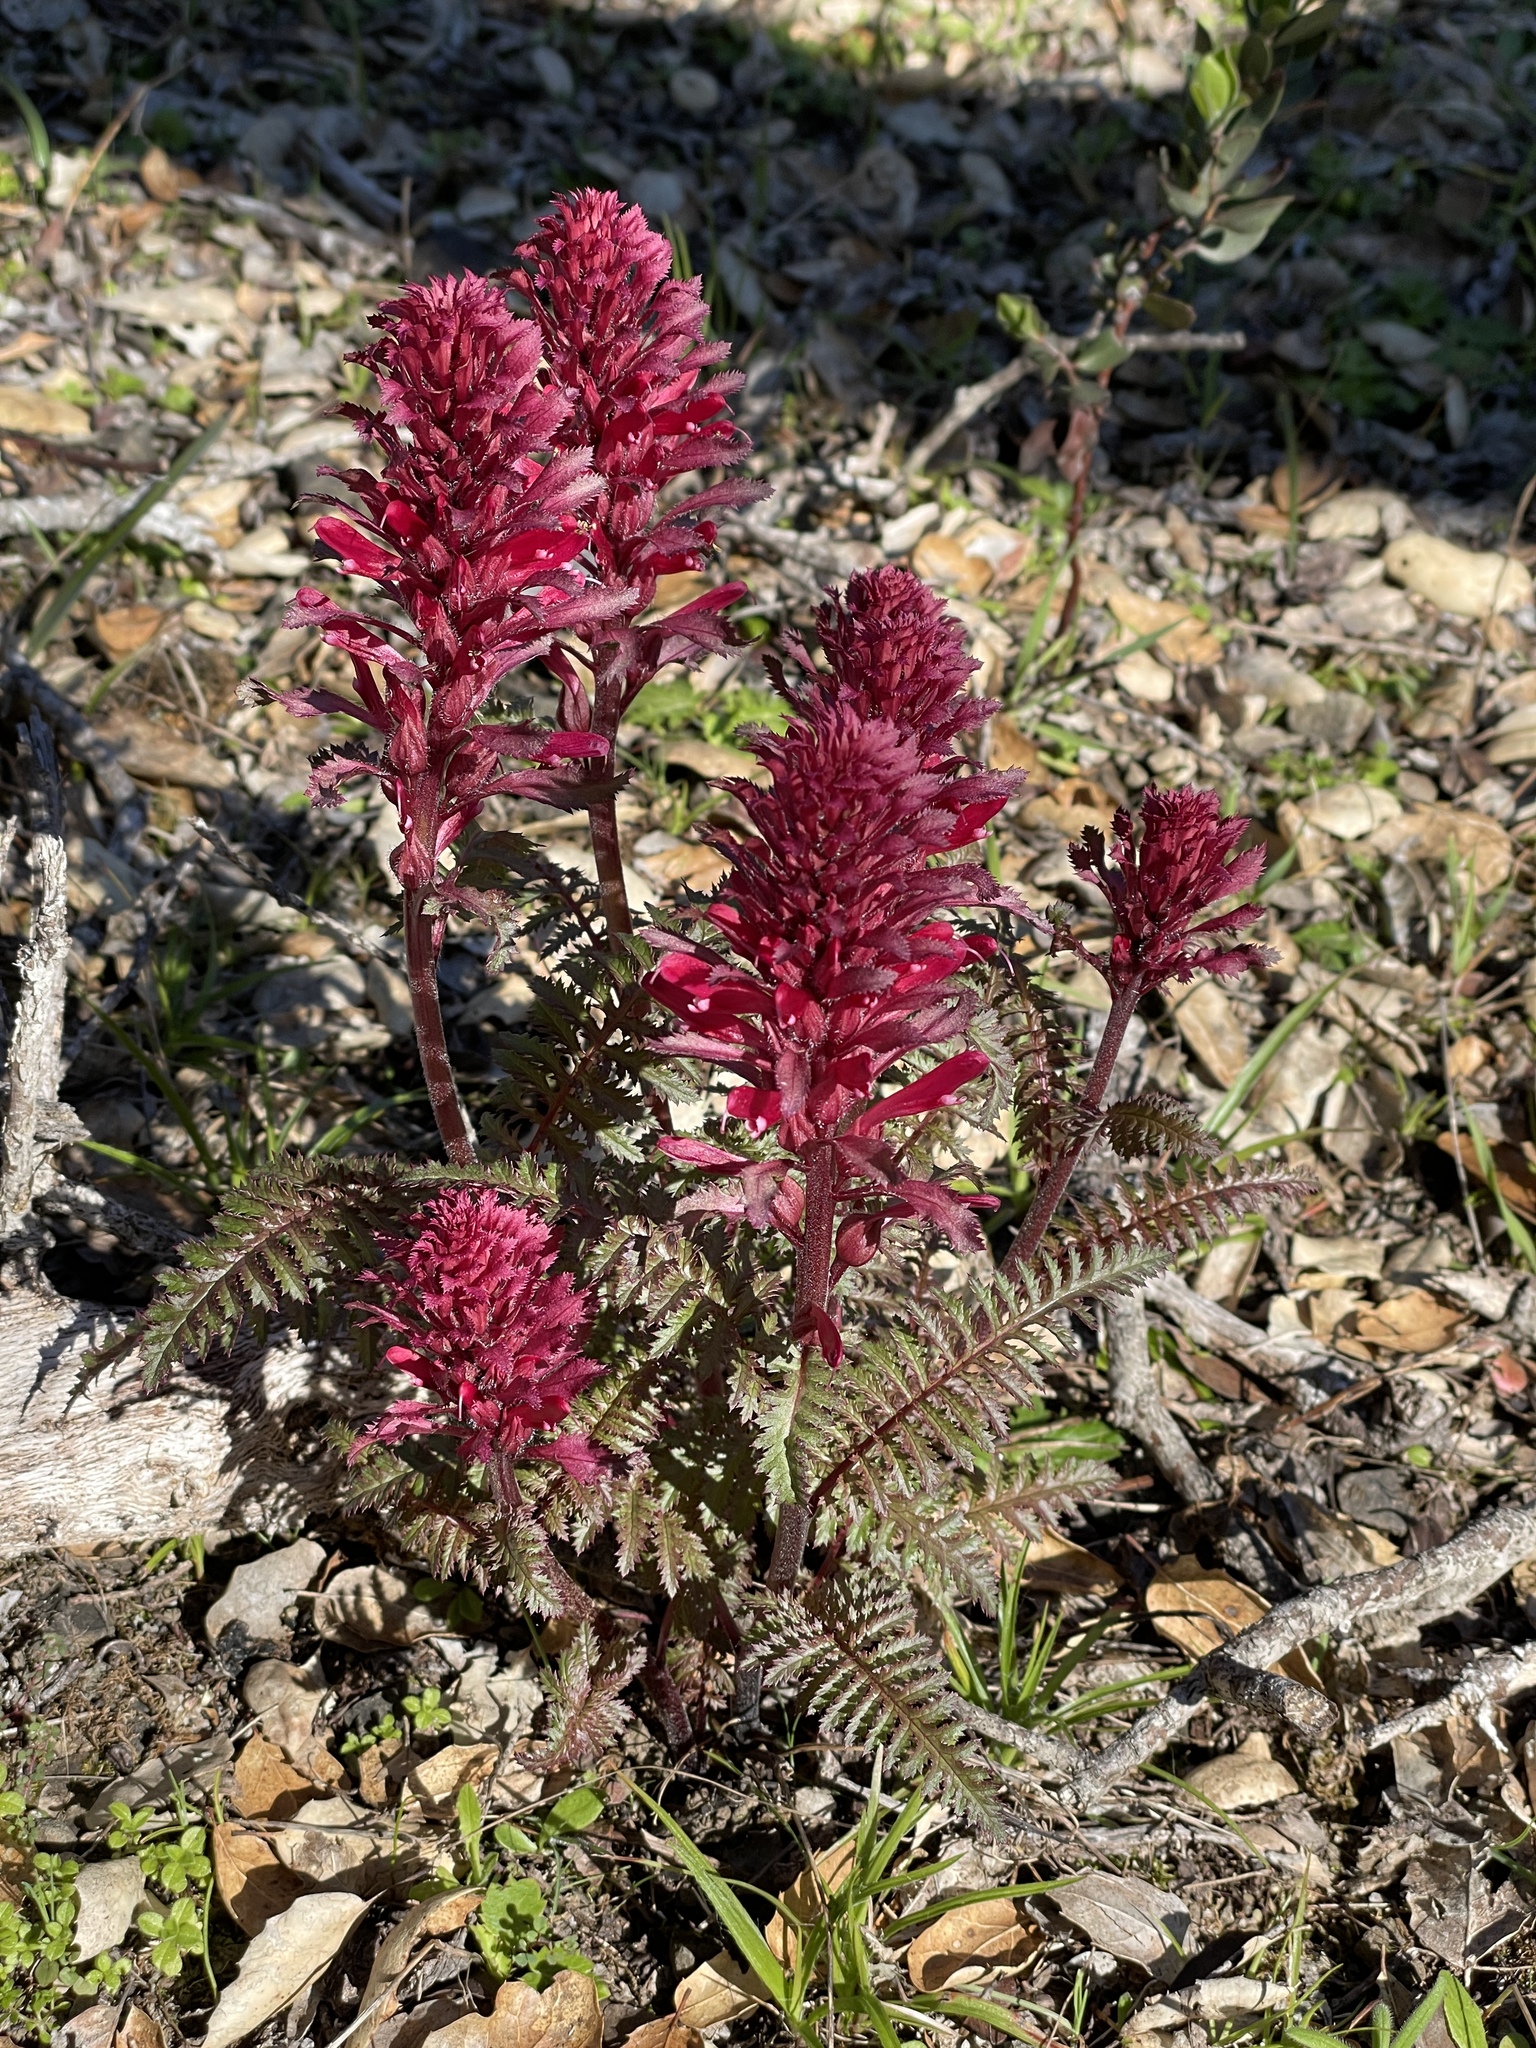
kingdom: Plantae
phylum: Tracheophyta
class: Magnoliopsida
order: Lamiales
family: Orobanchaceae
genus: Pedicularis
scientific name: Pedicularis densiflora
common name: Indian warrior
